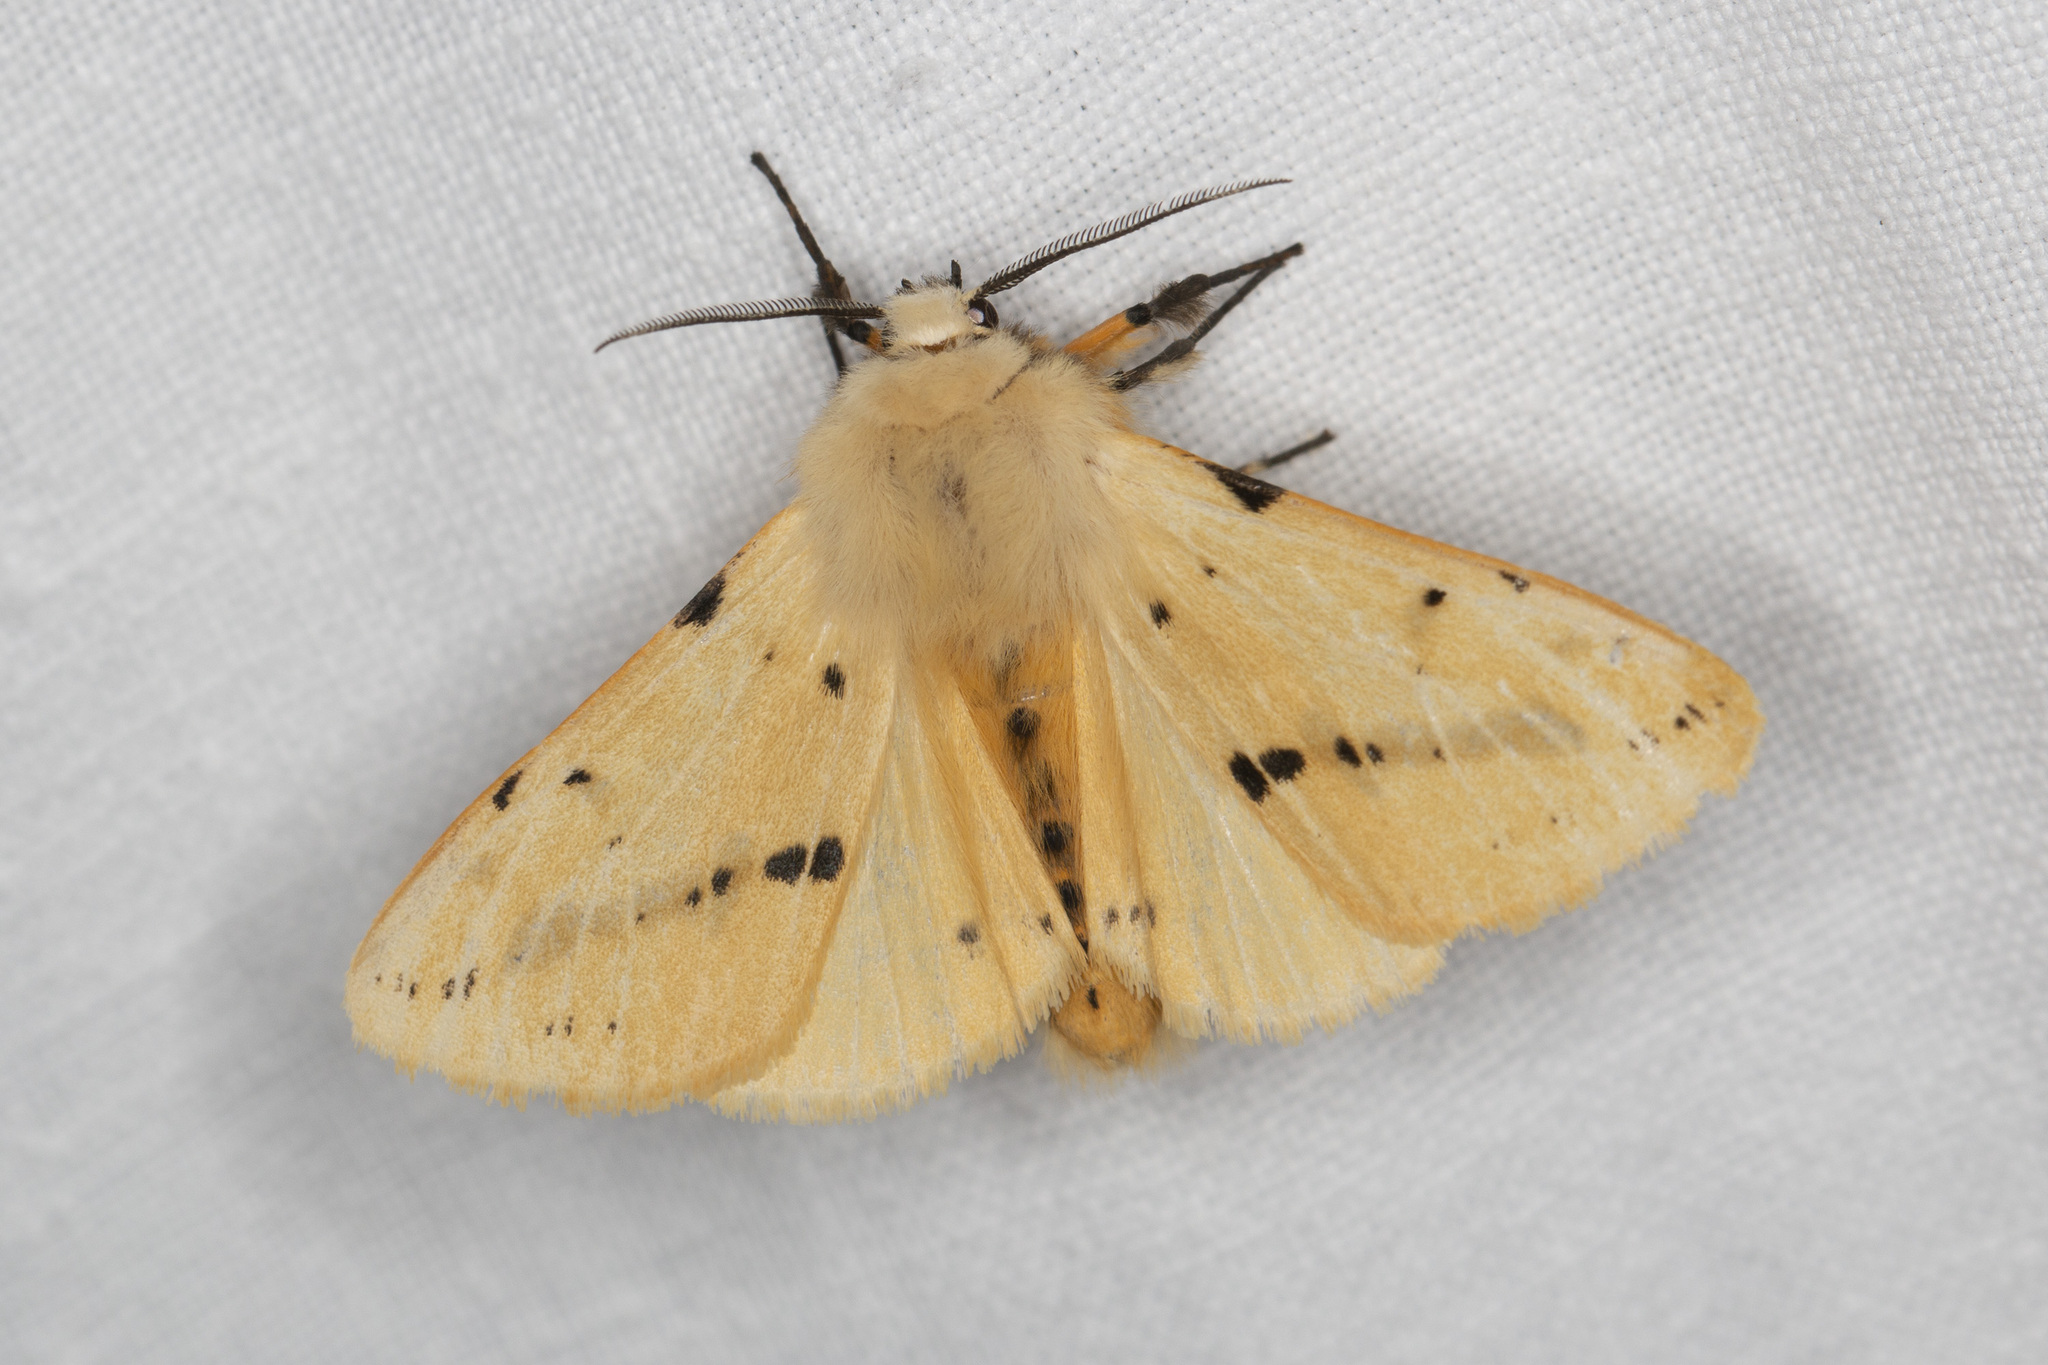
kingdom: Animalia
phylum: Arthropoda
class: Insecta
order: Lepidoptera
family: Erebidae
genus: Spilarctia
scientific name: Spilarctia lutea
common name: Buff ermine
